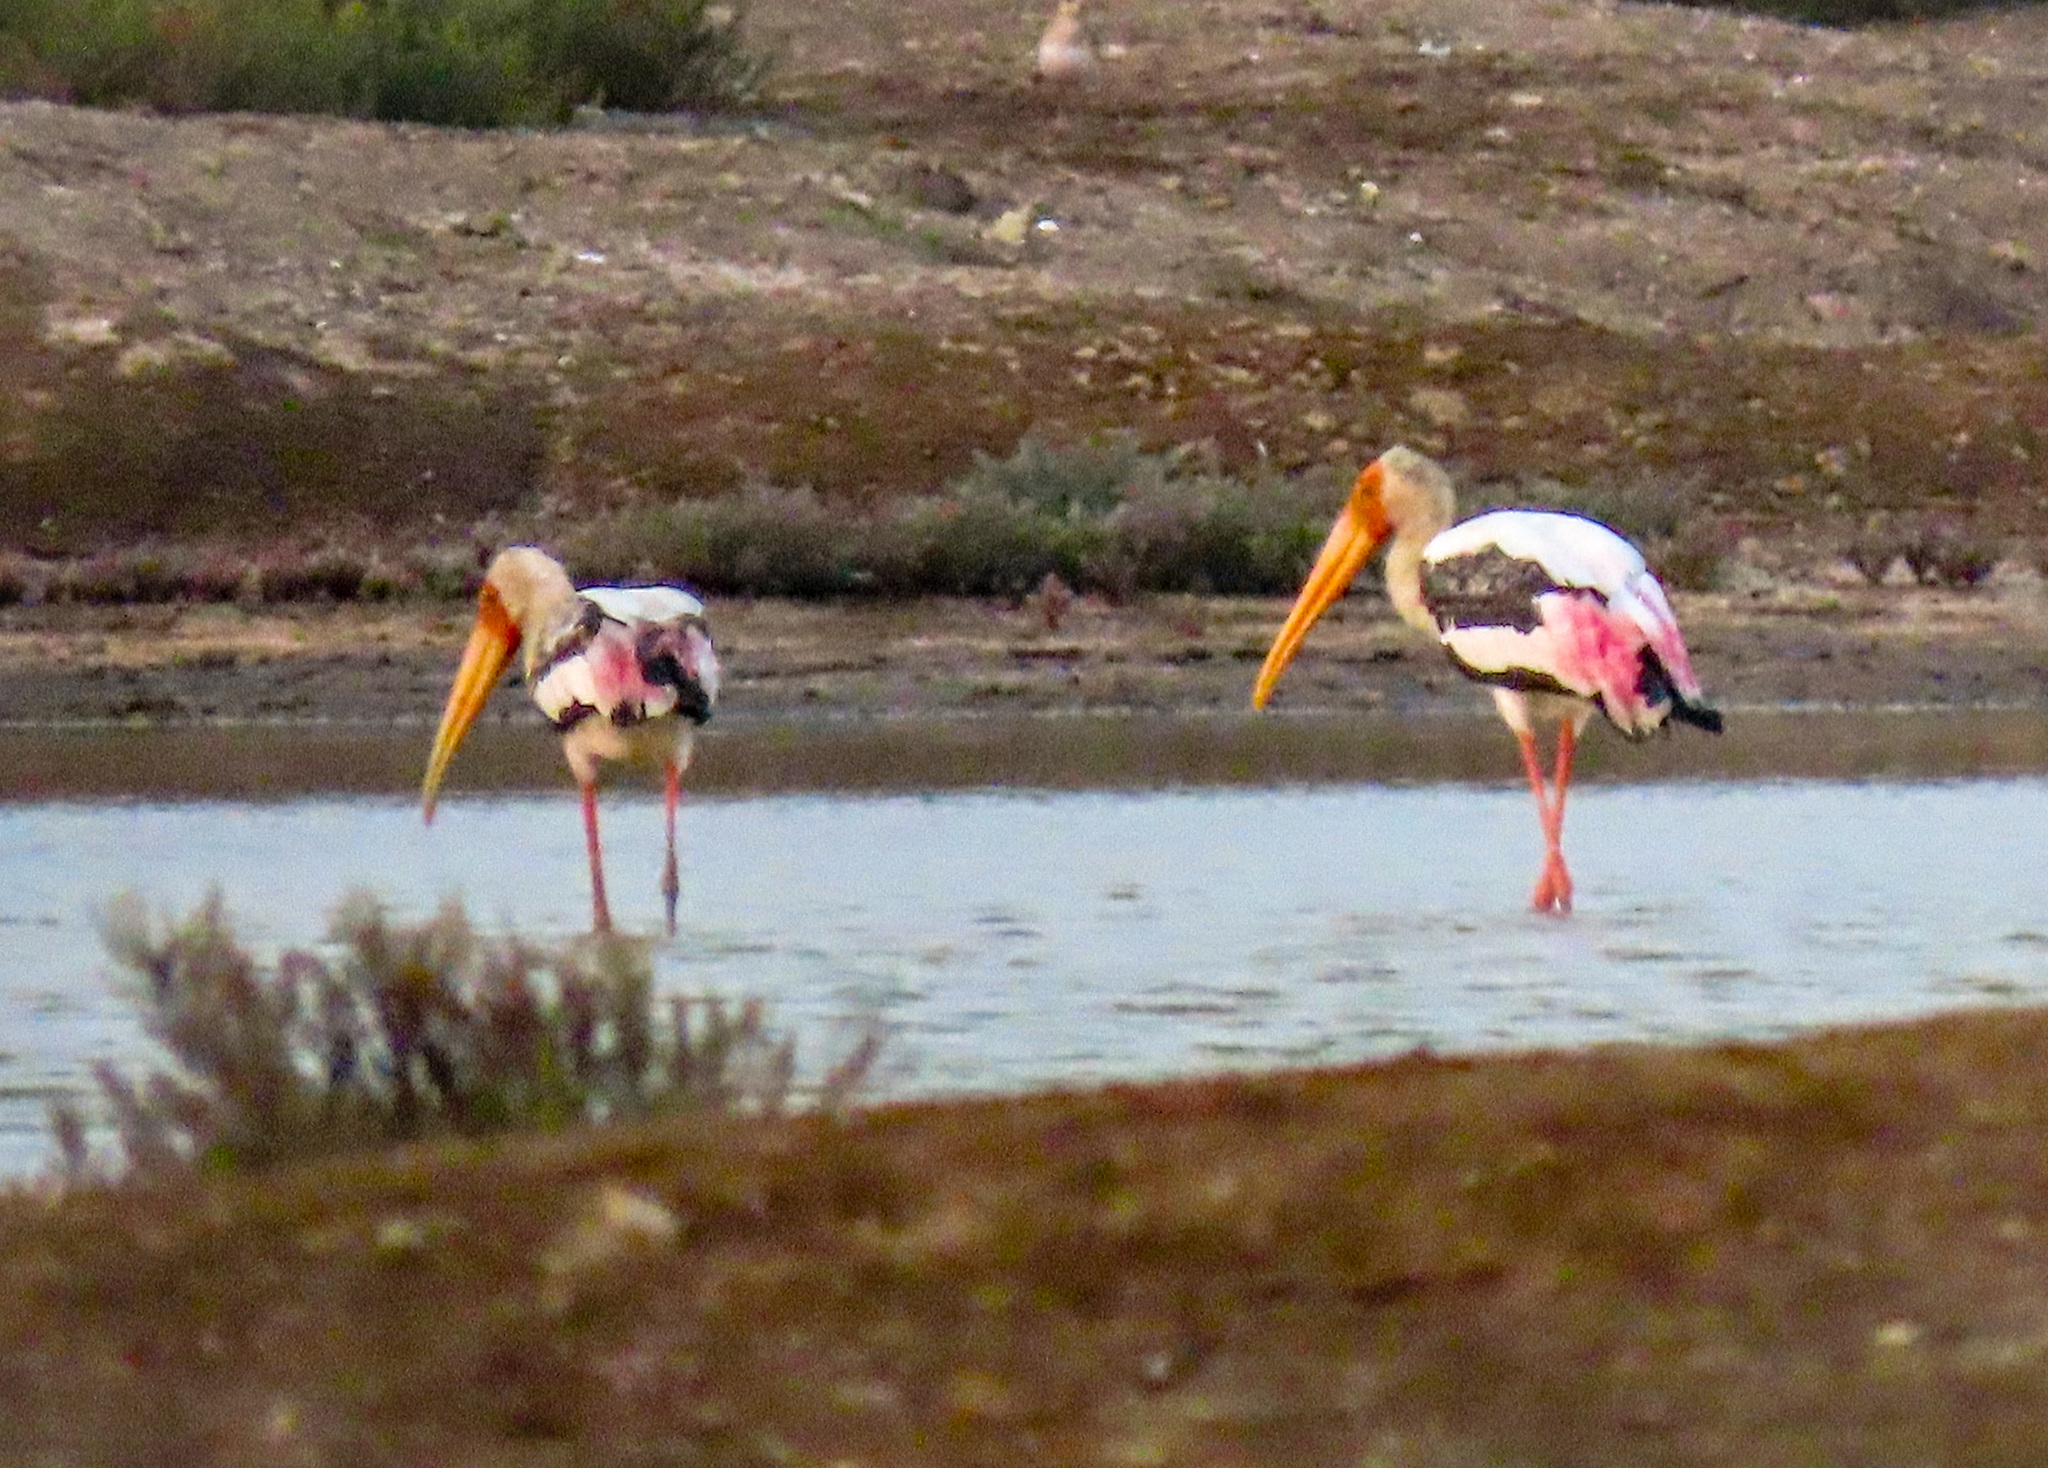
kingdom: Animalia
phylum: Chordata
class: Aves
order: Ciconiiformes
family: Ciconiidae
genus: Mycteria
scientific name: Mycteria leucocephala
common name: Painted stork
